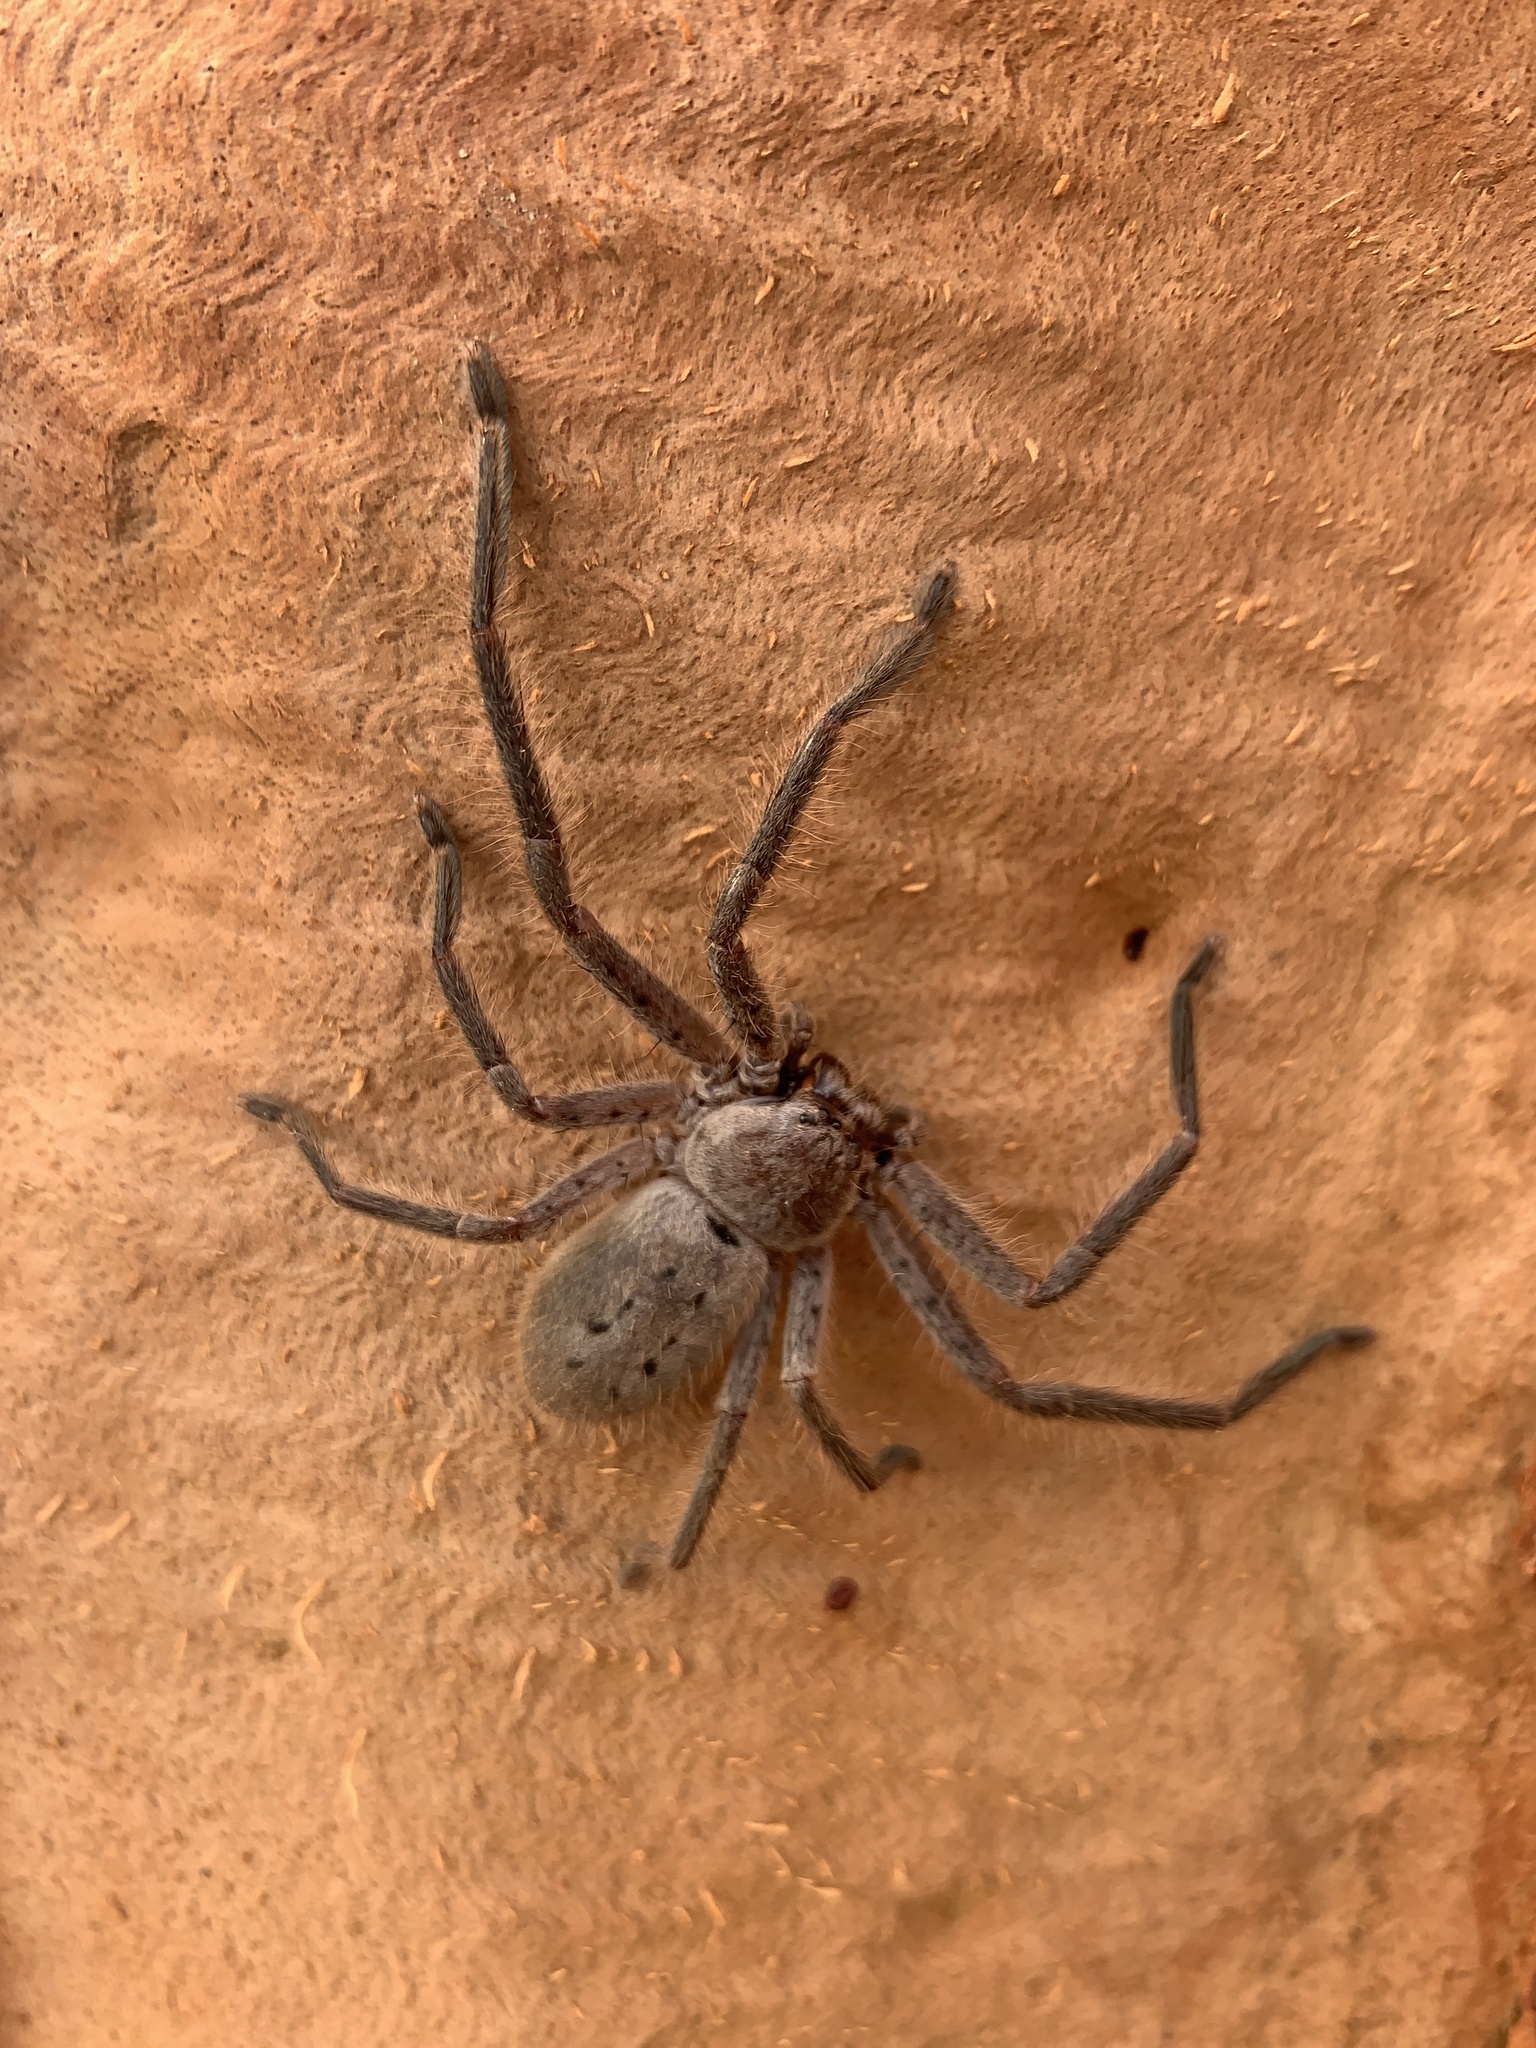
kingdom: Animalia
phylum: Arthropoda
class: Arachnida
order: Araneae
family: Sparassidae
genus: Isopeda
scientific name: Isopeda villosa
